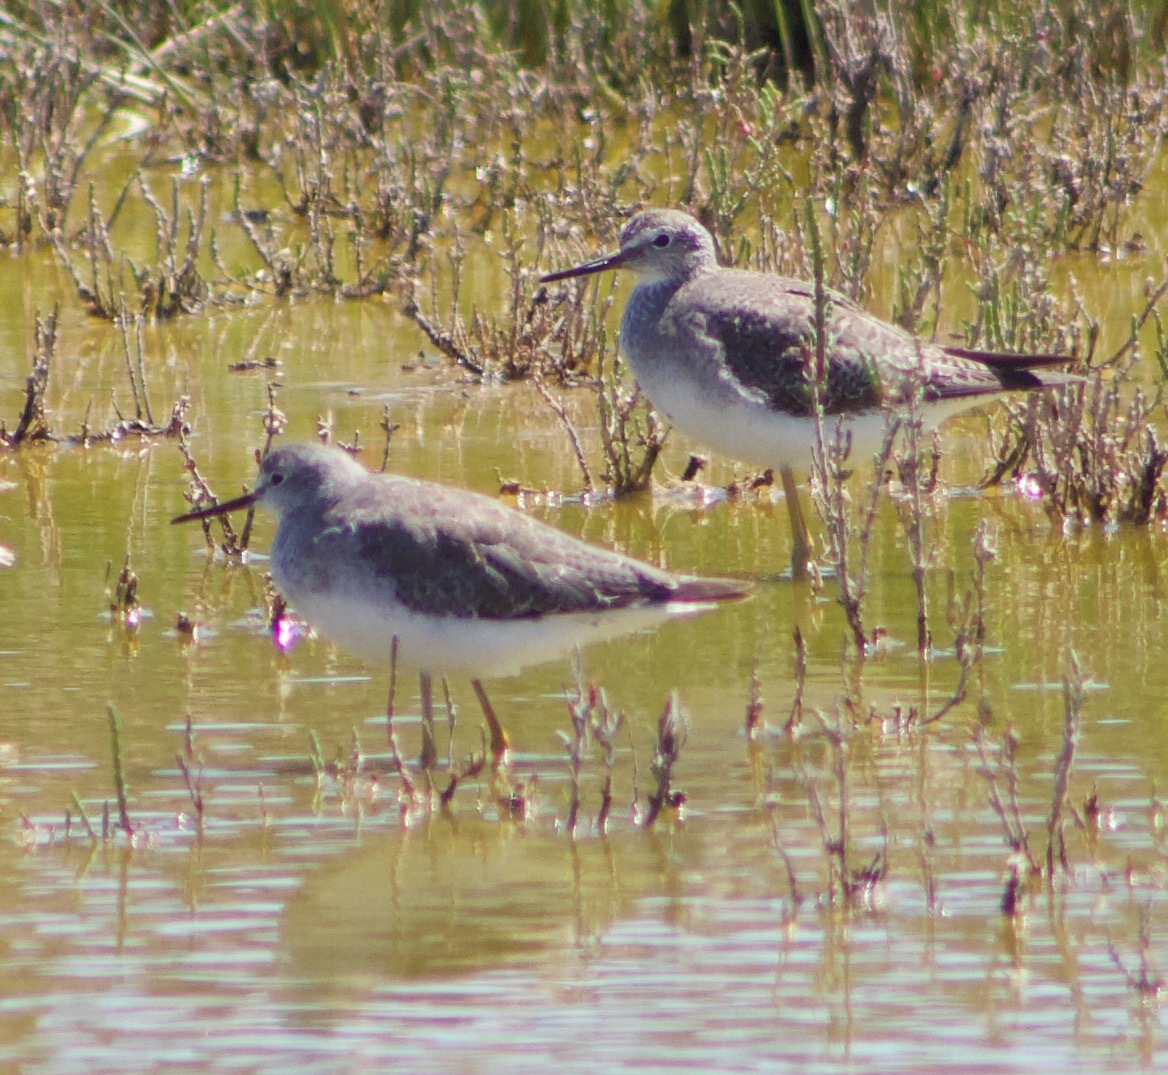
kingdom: Animalia
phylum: Chordata
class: Aves
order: Charadriiformes
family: Scolopacidae
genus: Tringa
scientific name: Tringa flavipes
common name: Lesser yellowlegs
